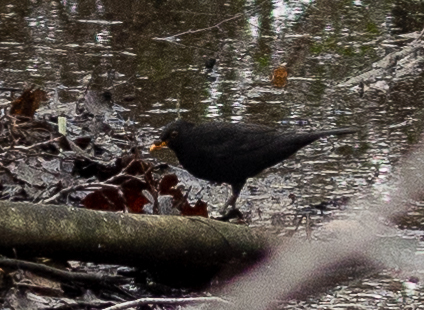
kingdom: Animalia
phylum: Chordata
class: Aves
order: Passeriformes
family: Turdidae
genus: Turdus
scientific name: Turdus merula
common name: Common blackbird
